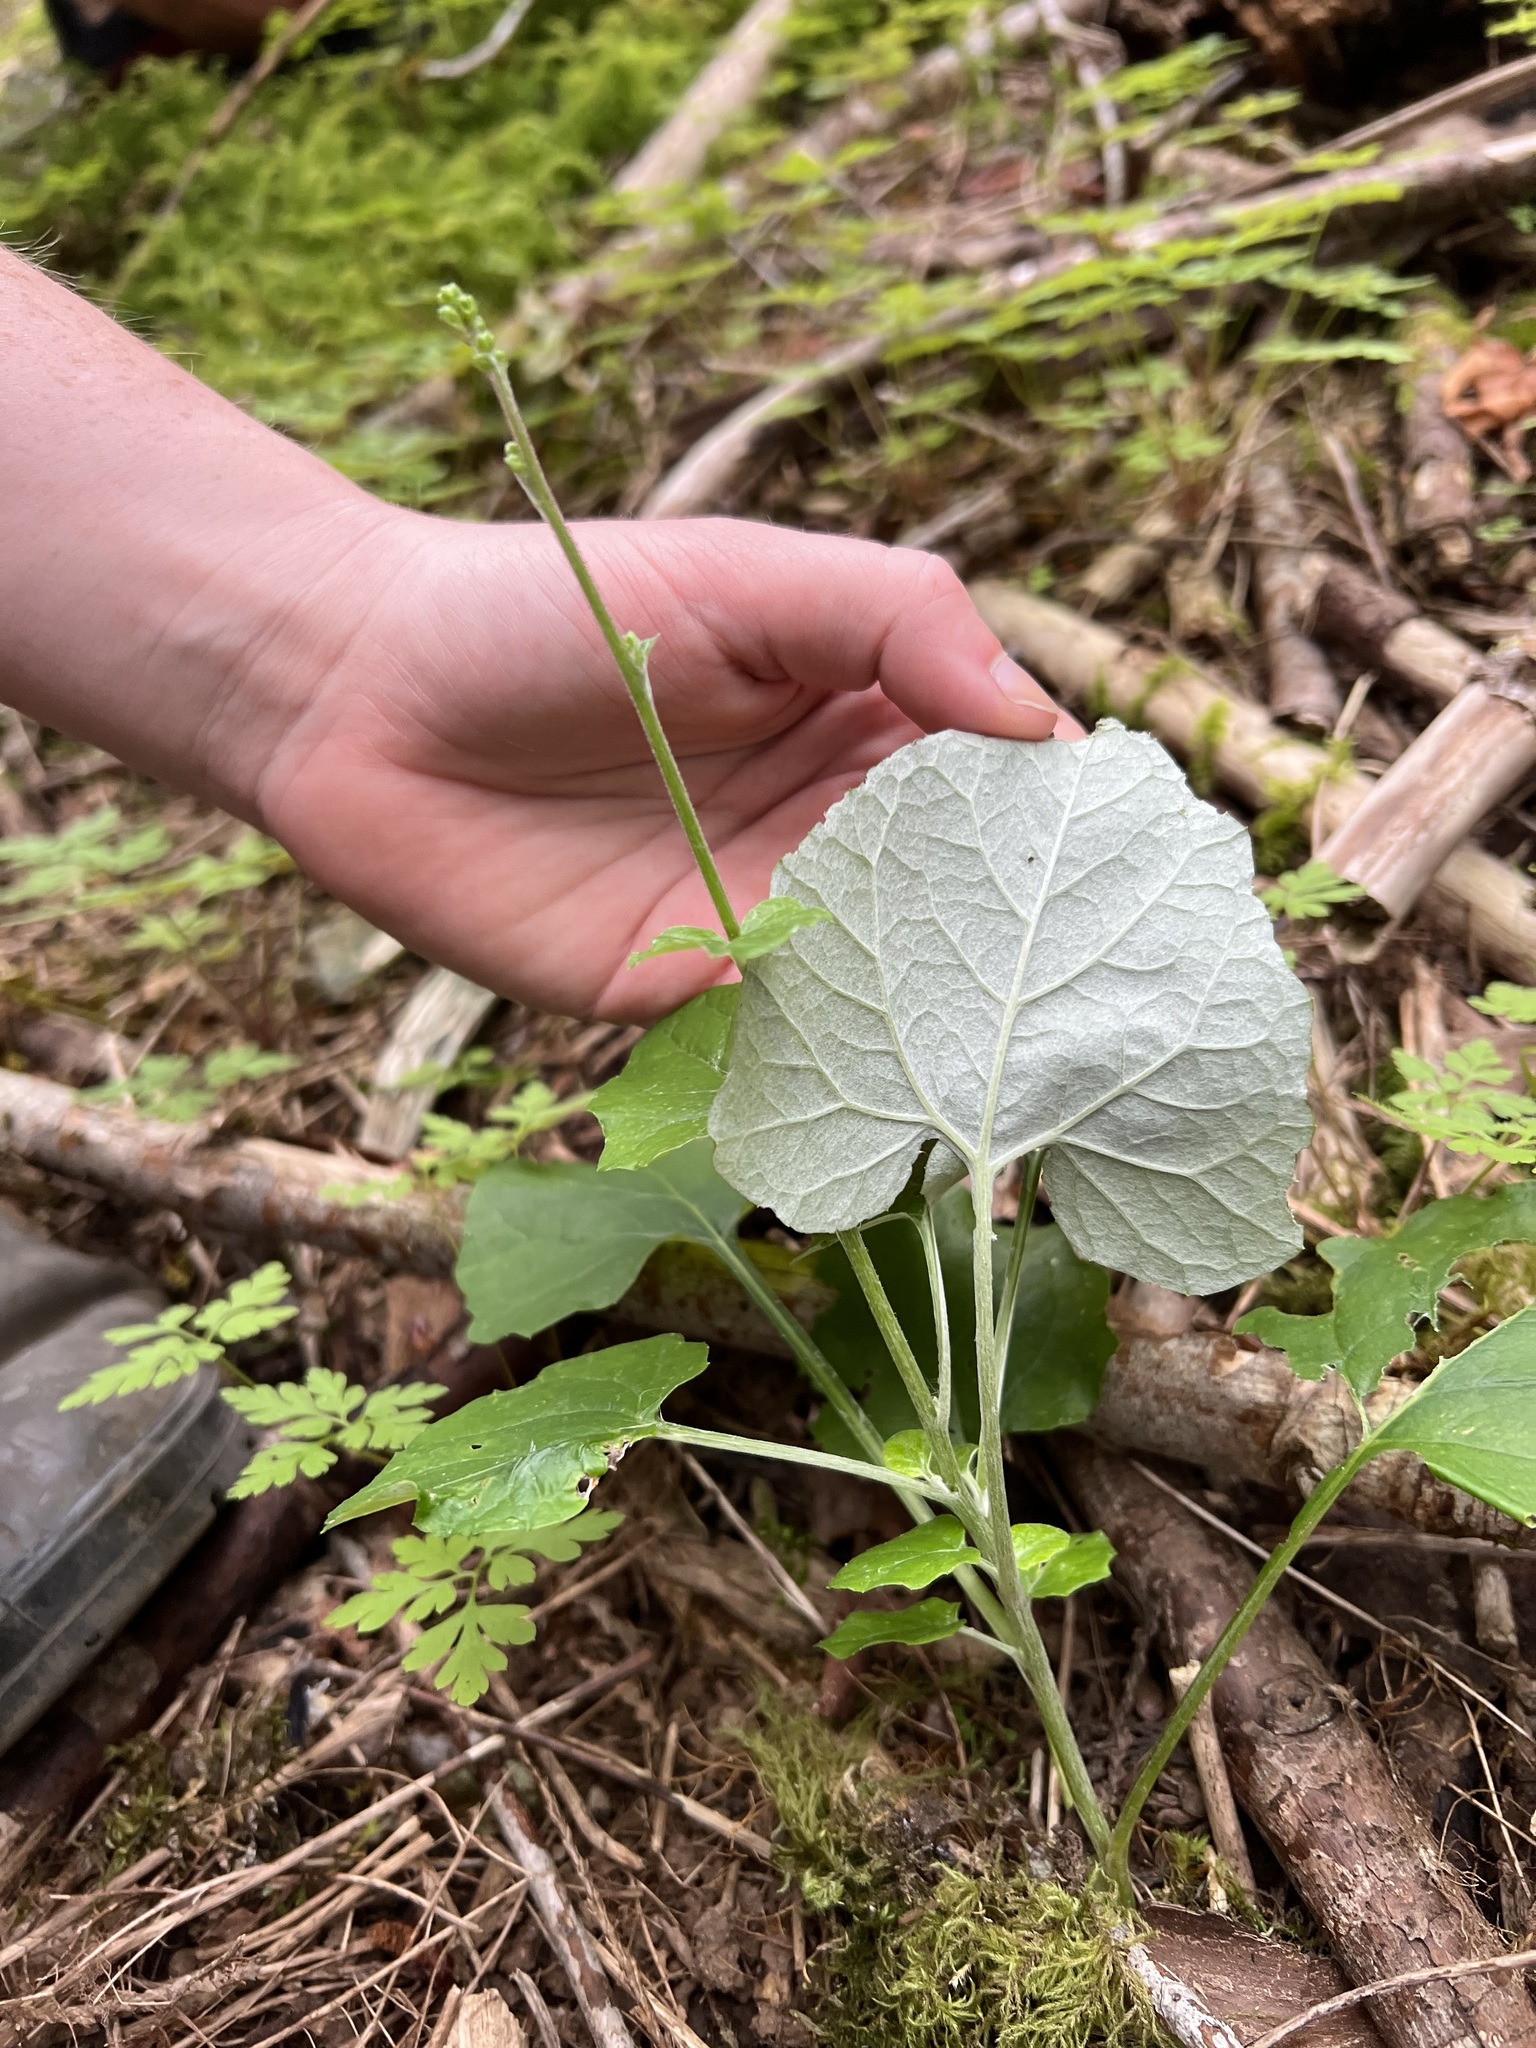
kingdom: Plantae
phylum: Tracheophyta
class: Magnoliopsida
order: Asterales
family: Asteraceae
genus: Adenocaulon
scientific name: Adenocaulon bicolor
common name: Trailplant
